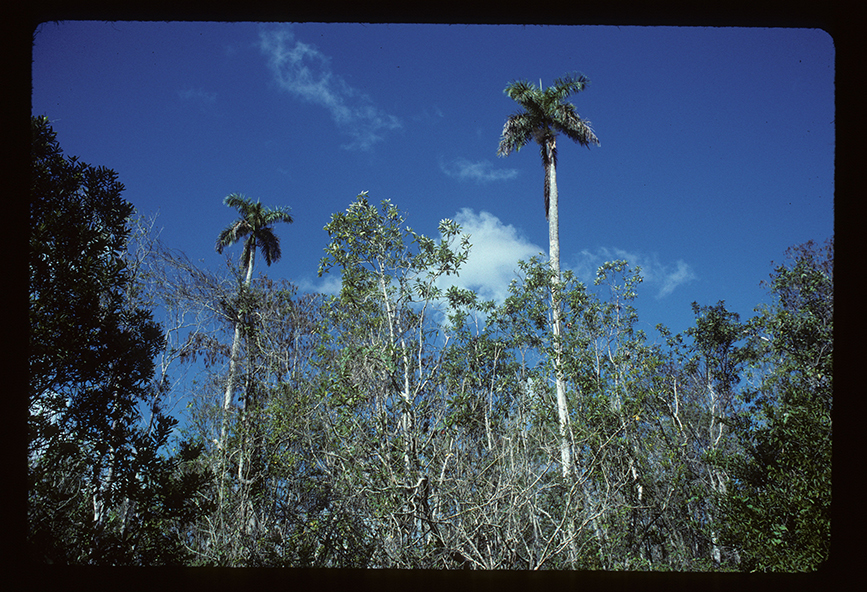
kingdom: Plantae
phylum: Tracheophyta
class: Liliopsida
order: Arecales
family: Arecaceae
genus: Roystonea
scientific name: Roystonea regia
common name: Florida royal palm
